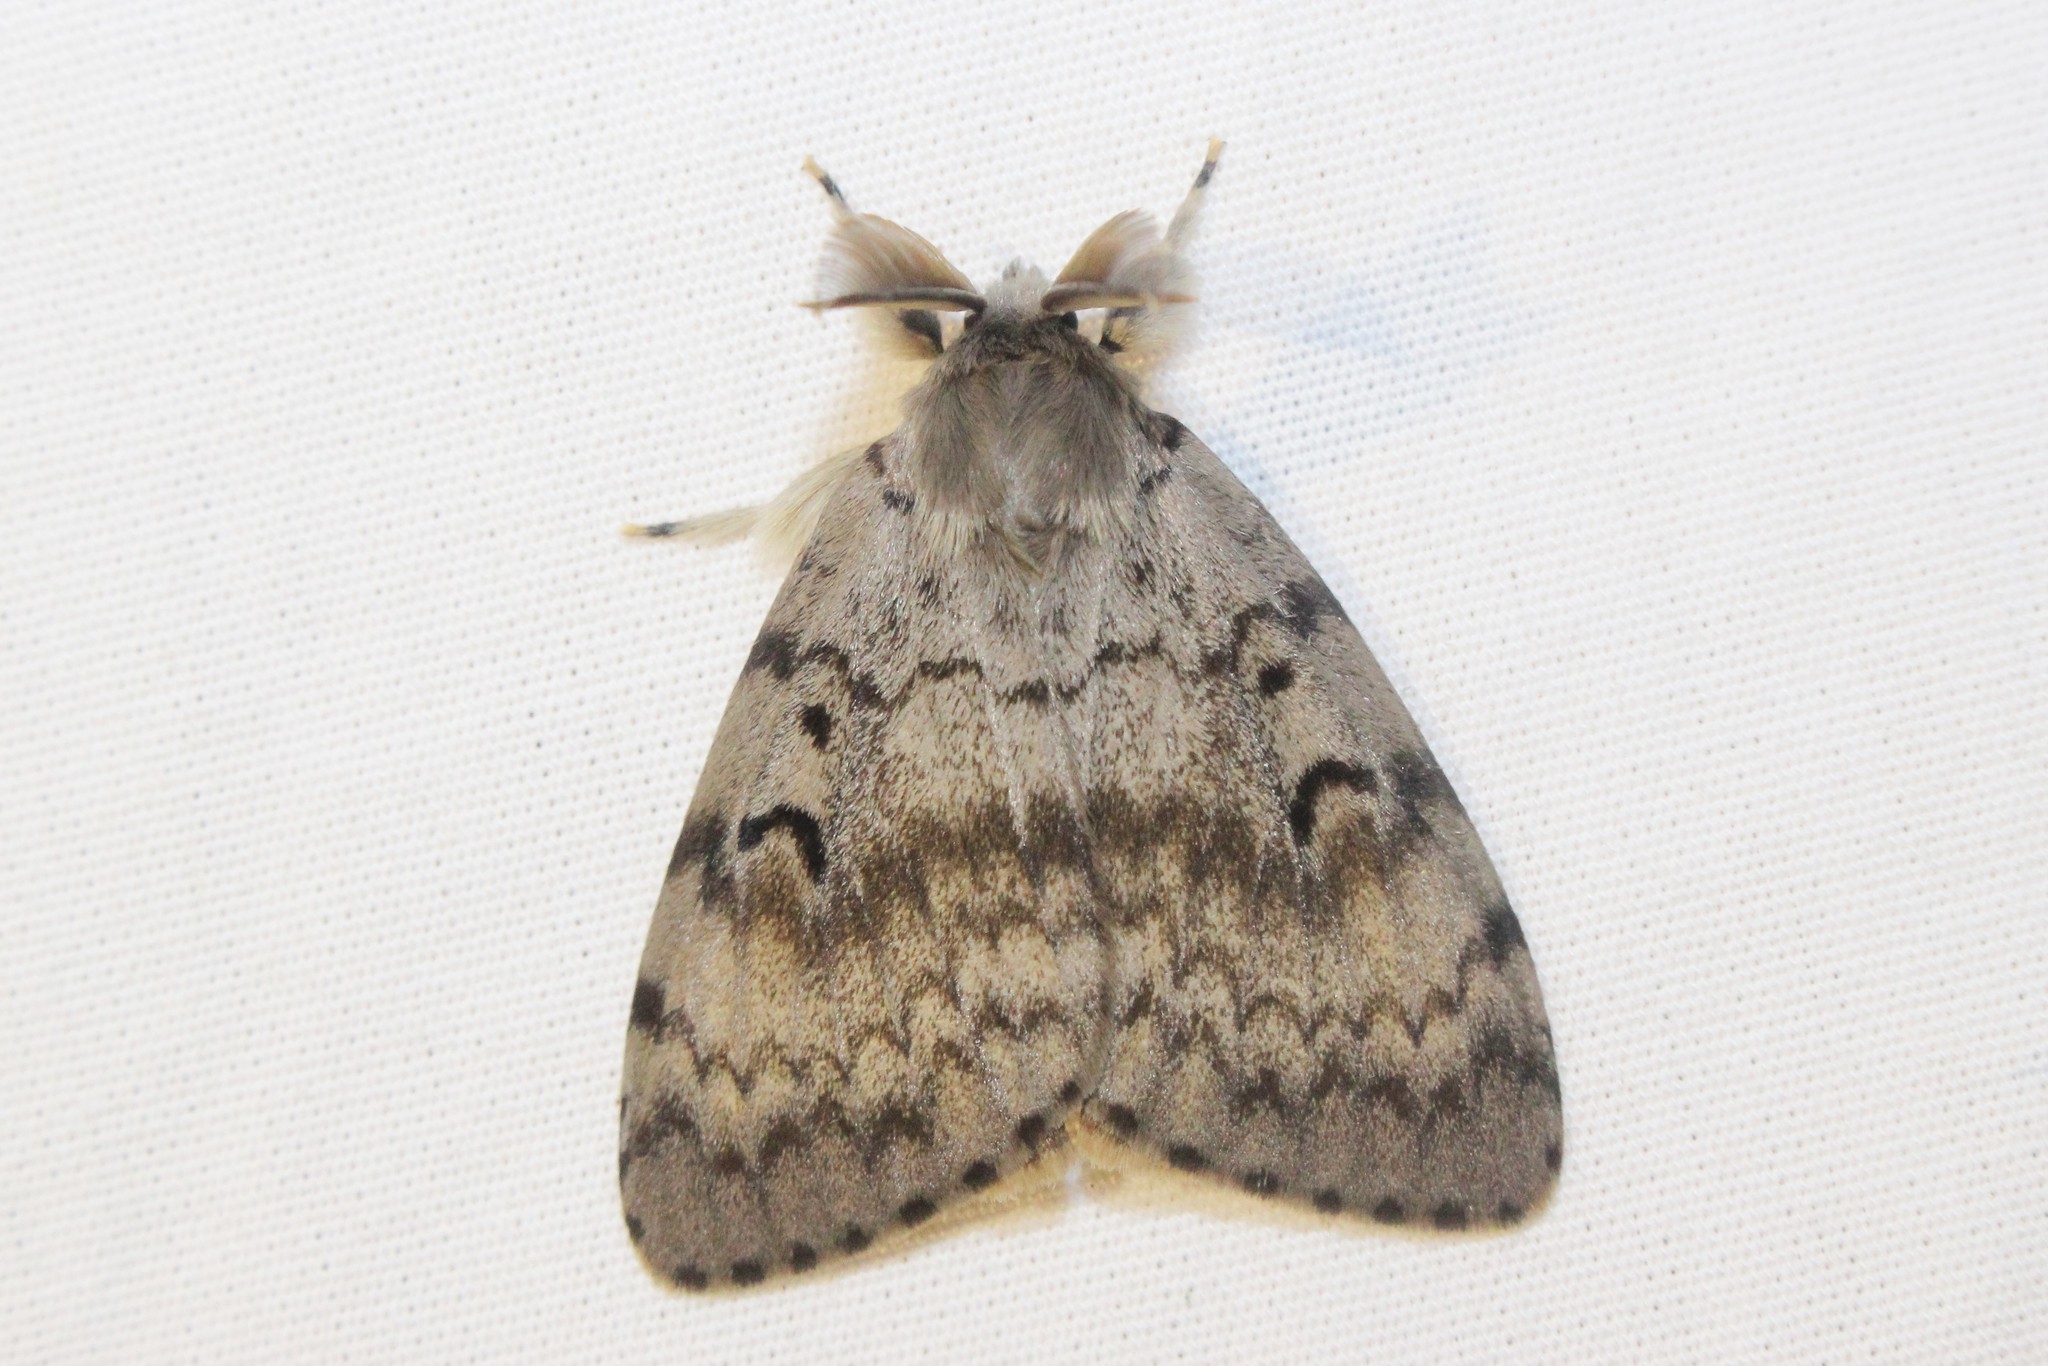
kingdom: Animalia
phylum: Arthropoda
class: Insecta
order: Lepidoptera
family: Erebidae
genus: Lymantria
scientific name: Lymantria dispar
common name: Gypsy moth
